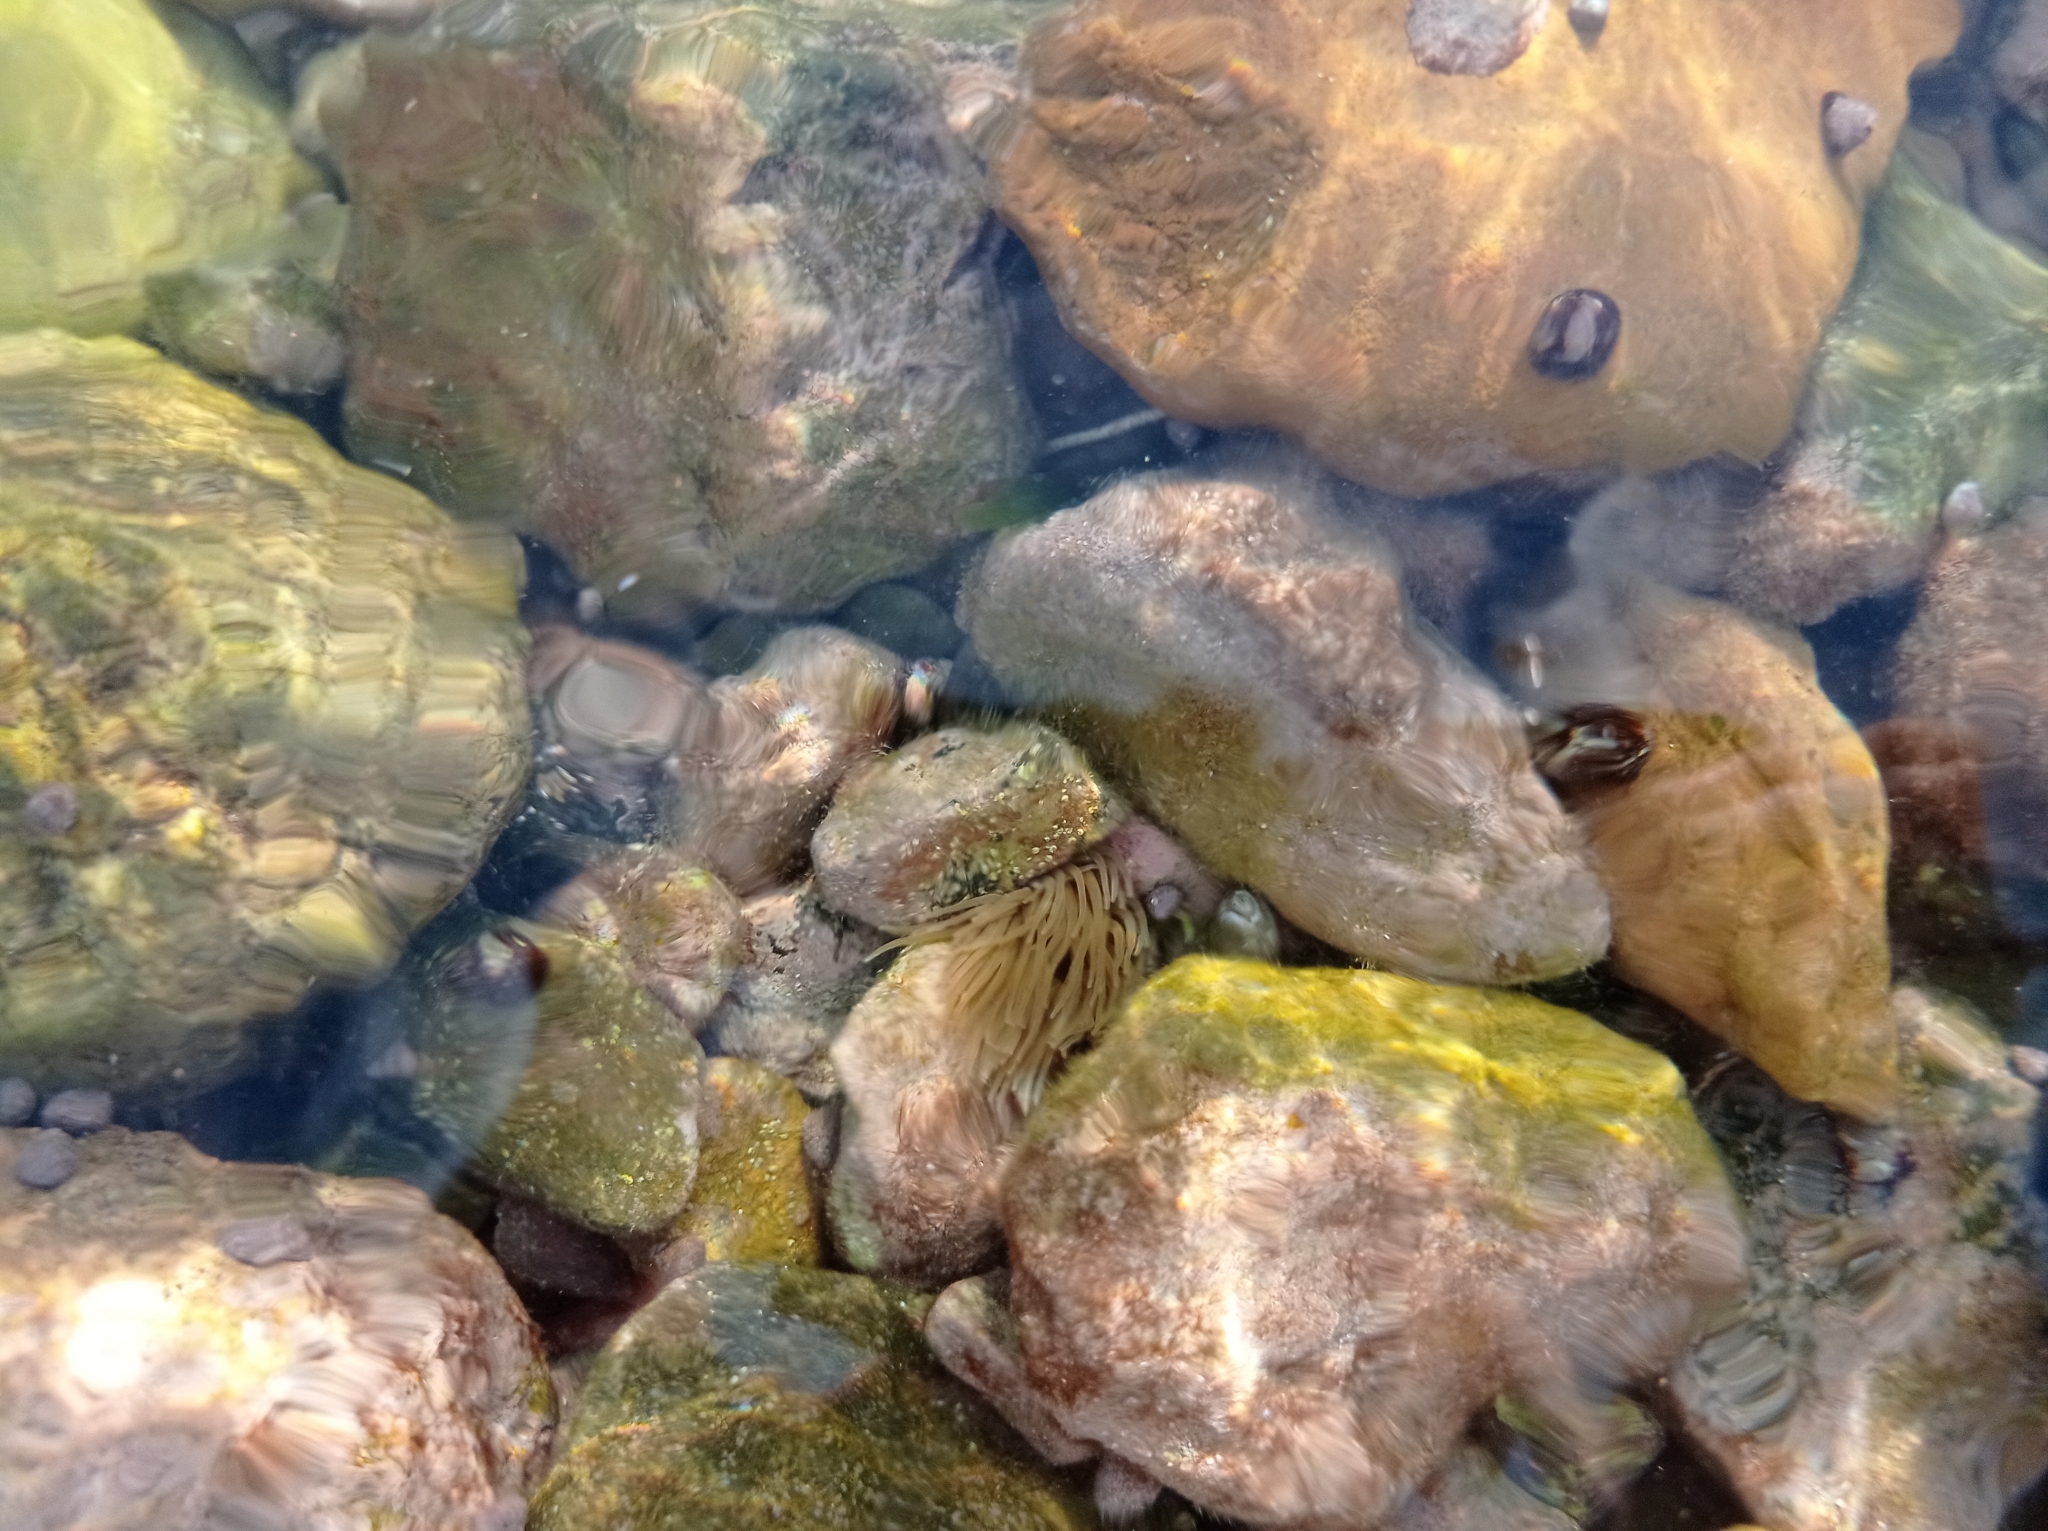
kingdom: Animalia
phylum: Cnidaria
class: Anthozoa
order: Actiniaria
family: Actiniidae
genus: Anemonia
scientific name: Anemonia viridis
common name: Snakelocks anemone
